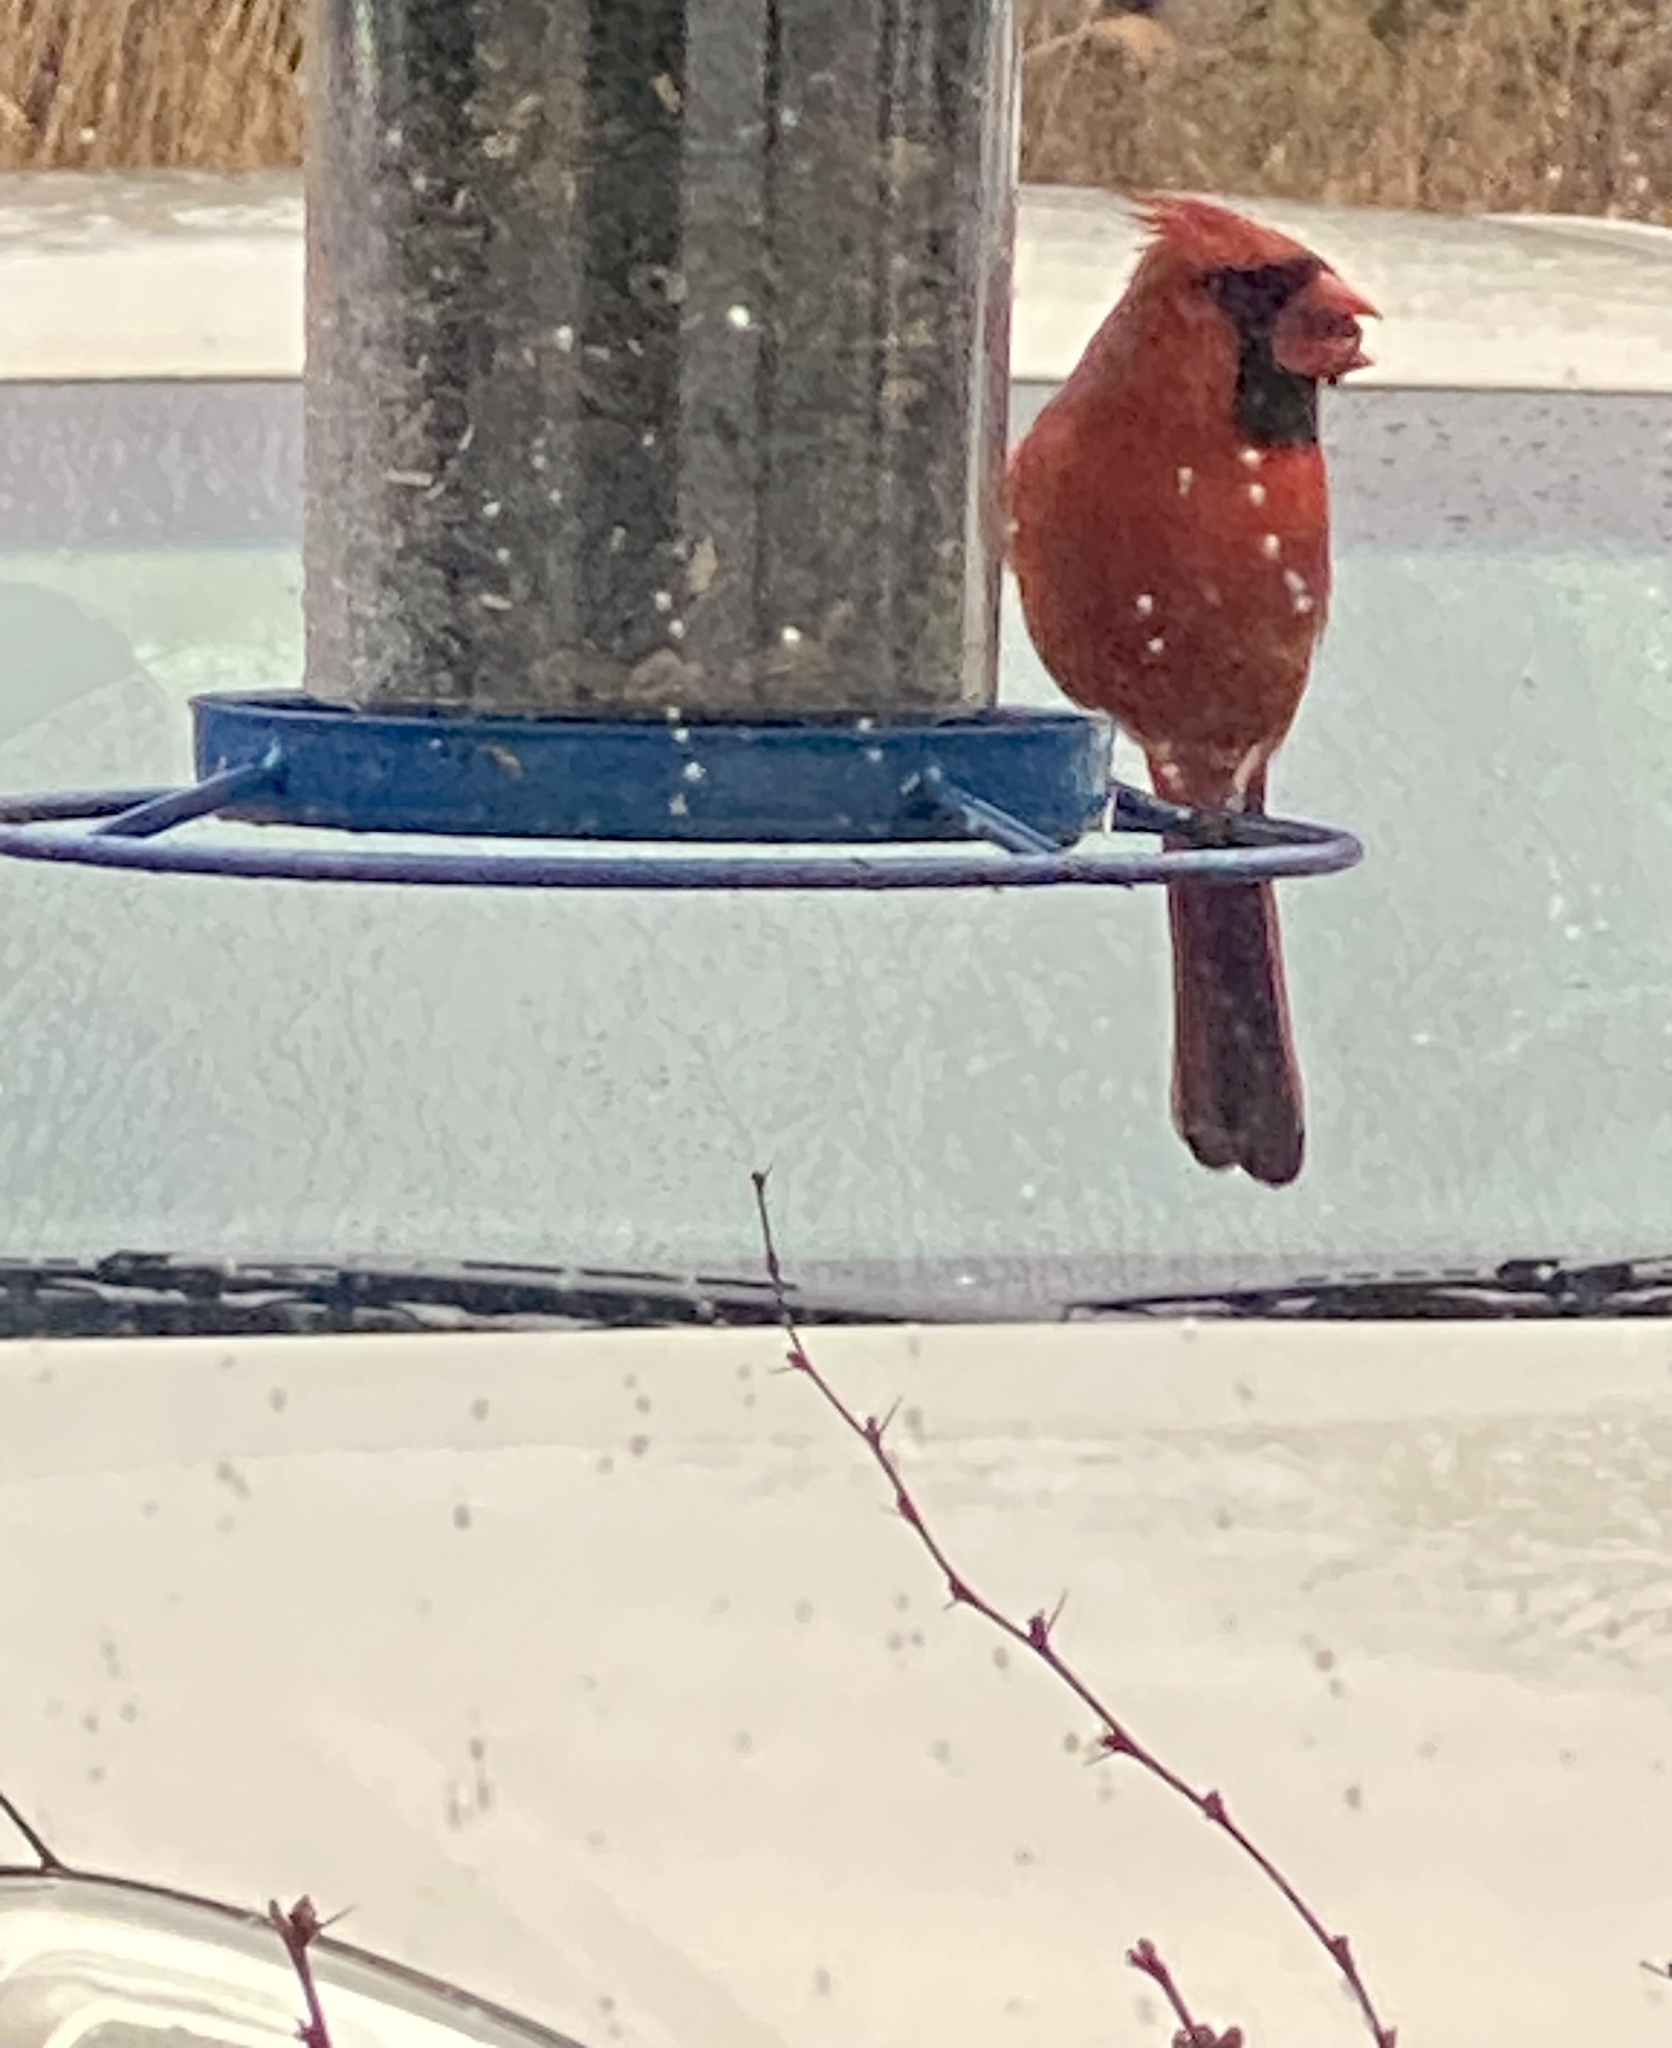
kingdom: Animalia
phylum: Chordata
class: Aves
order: Passeriformes
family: Cardinalidae
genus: Cardinalis
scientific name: Cardinalis cardinalis
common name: Northern cardinal
